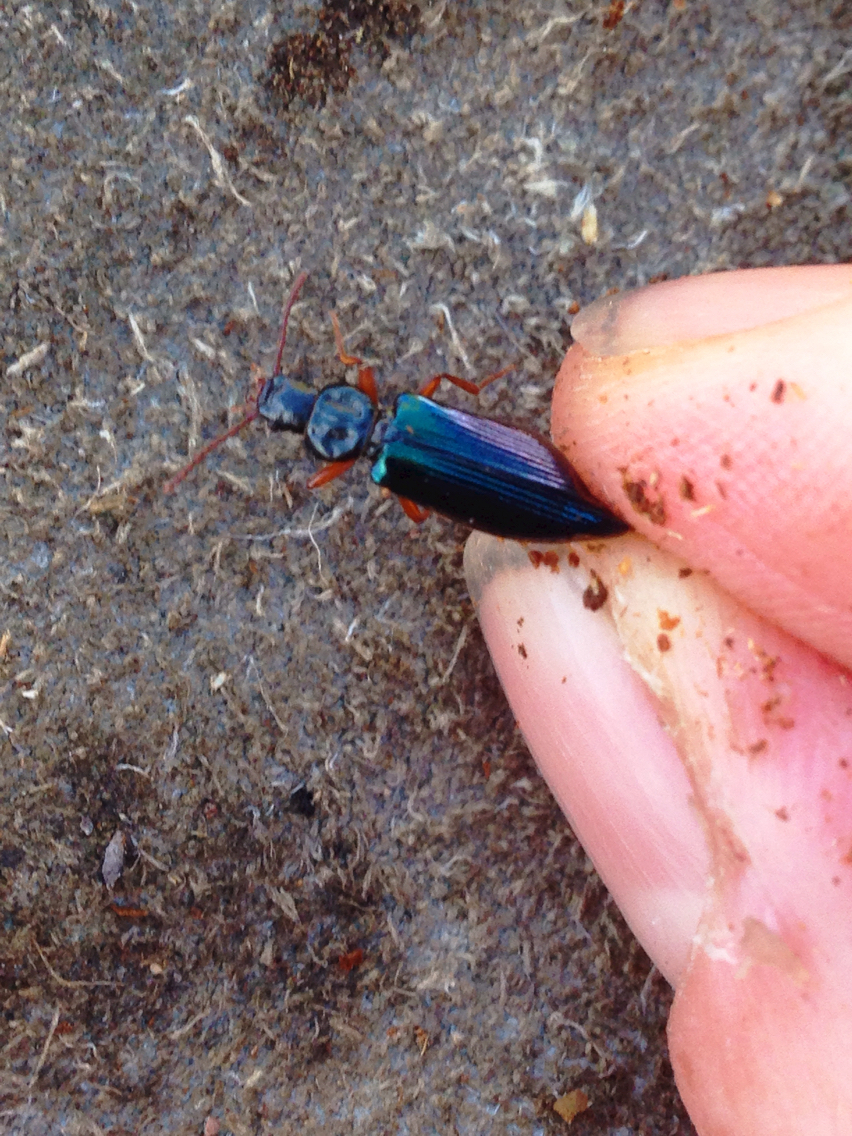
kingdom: Animalia
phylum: Arthropoda
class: Insecta
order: Coleoptera
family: Pythidae
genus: Pytho
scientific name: Pytho americanus
